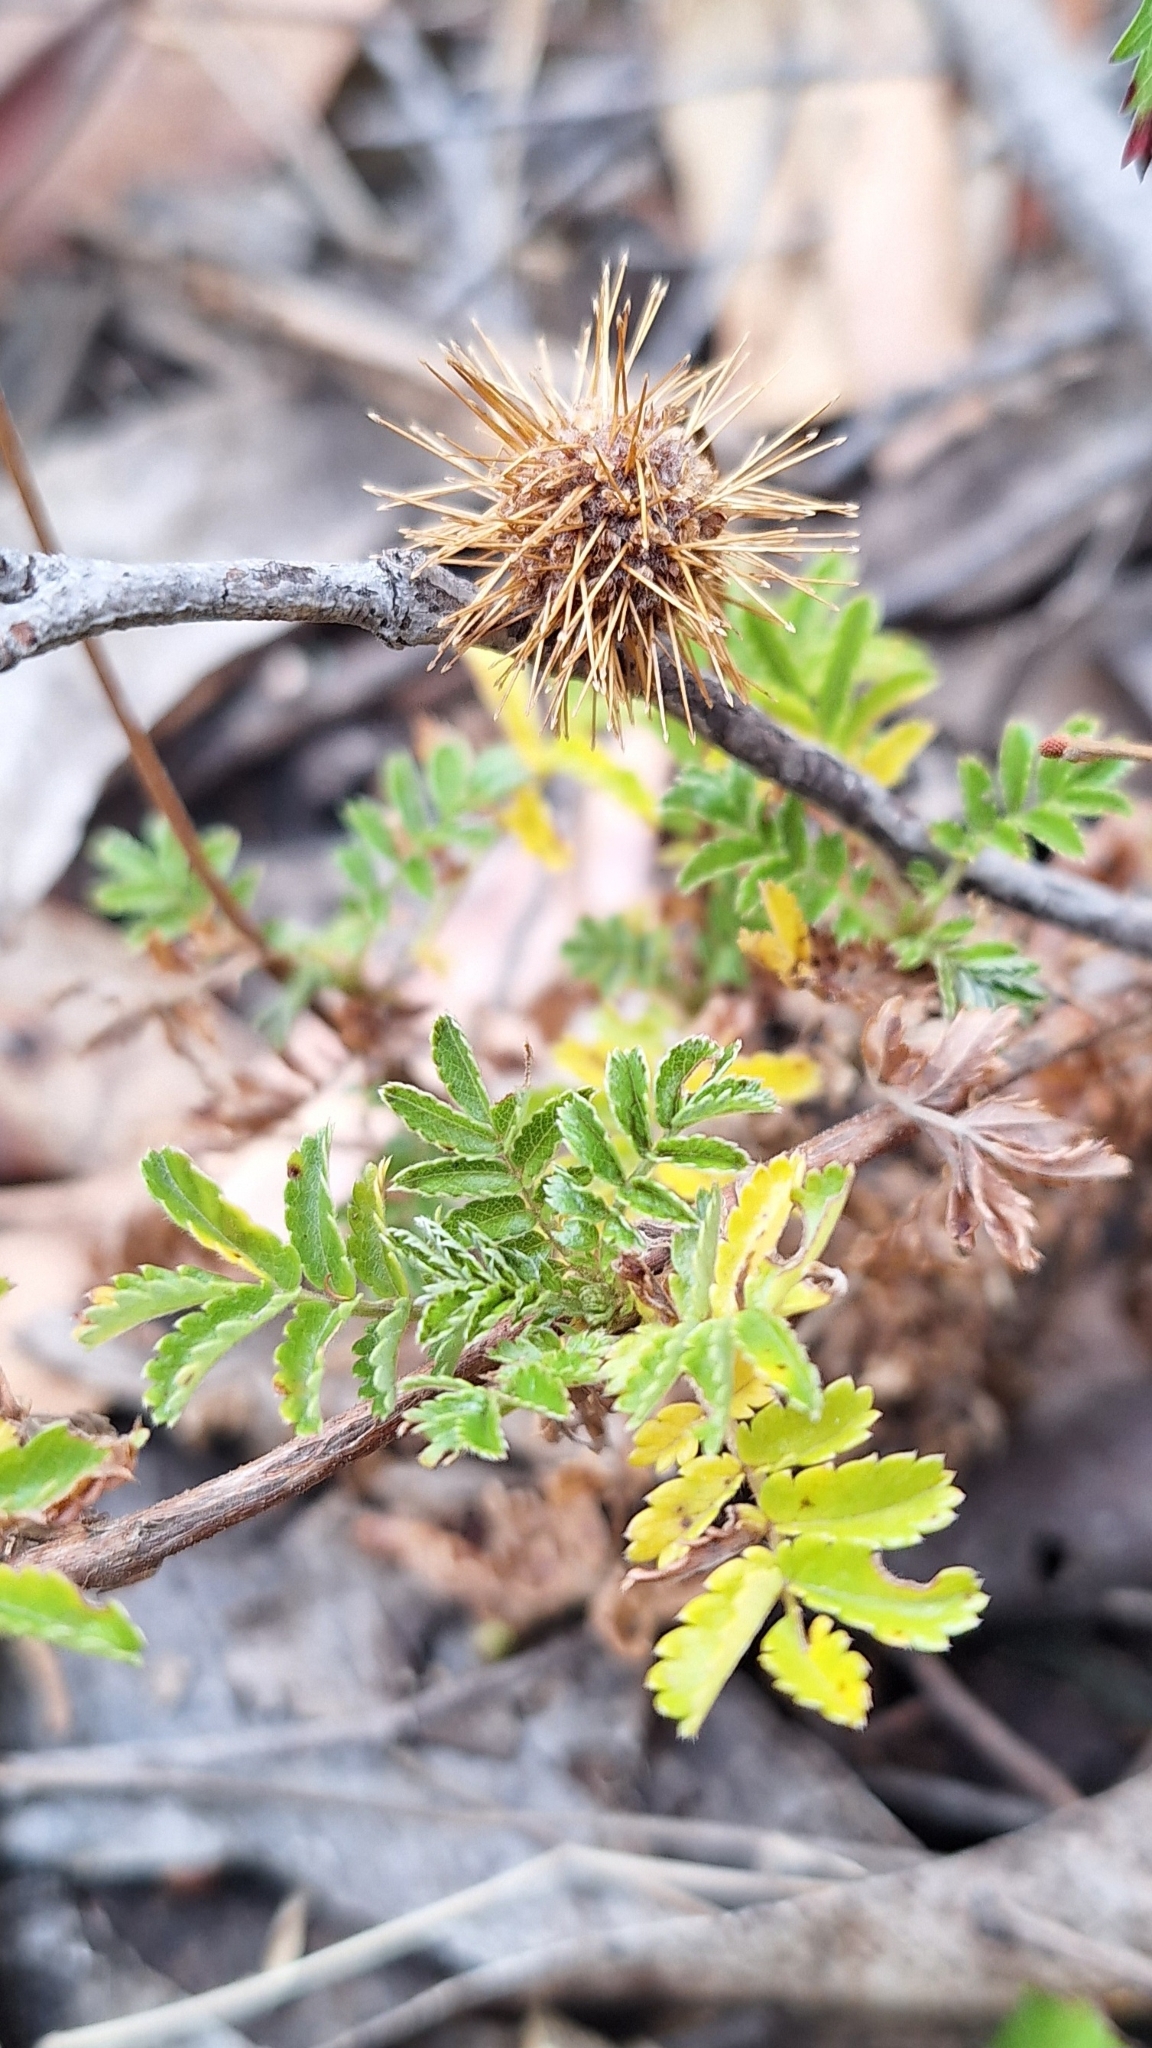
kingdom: Plantae
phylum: Tracheophyta
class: Magnoliopsida
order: Rosales
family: Rosaceae
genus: Acaena
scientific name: Acaena novae-zelandiae
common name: Pirri-pirri-bur
